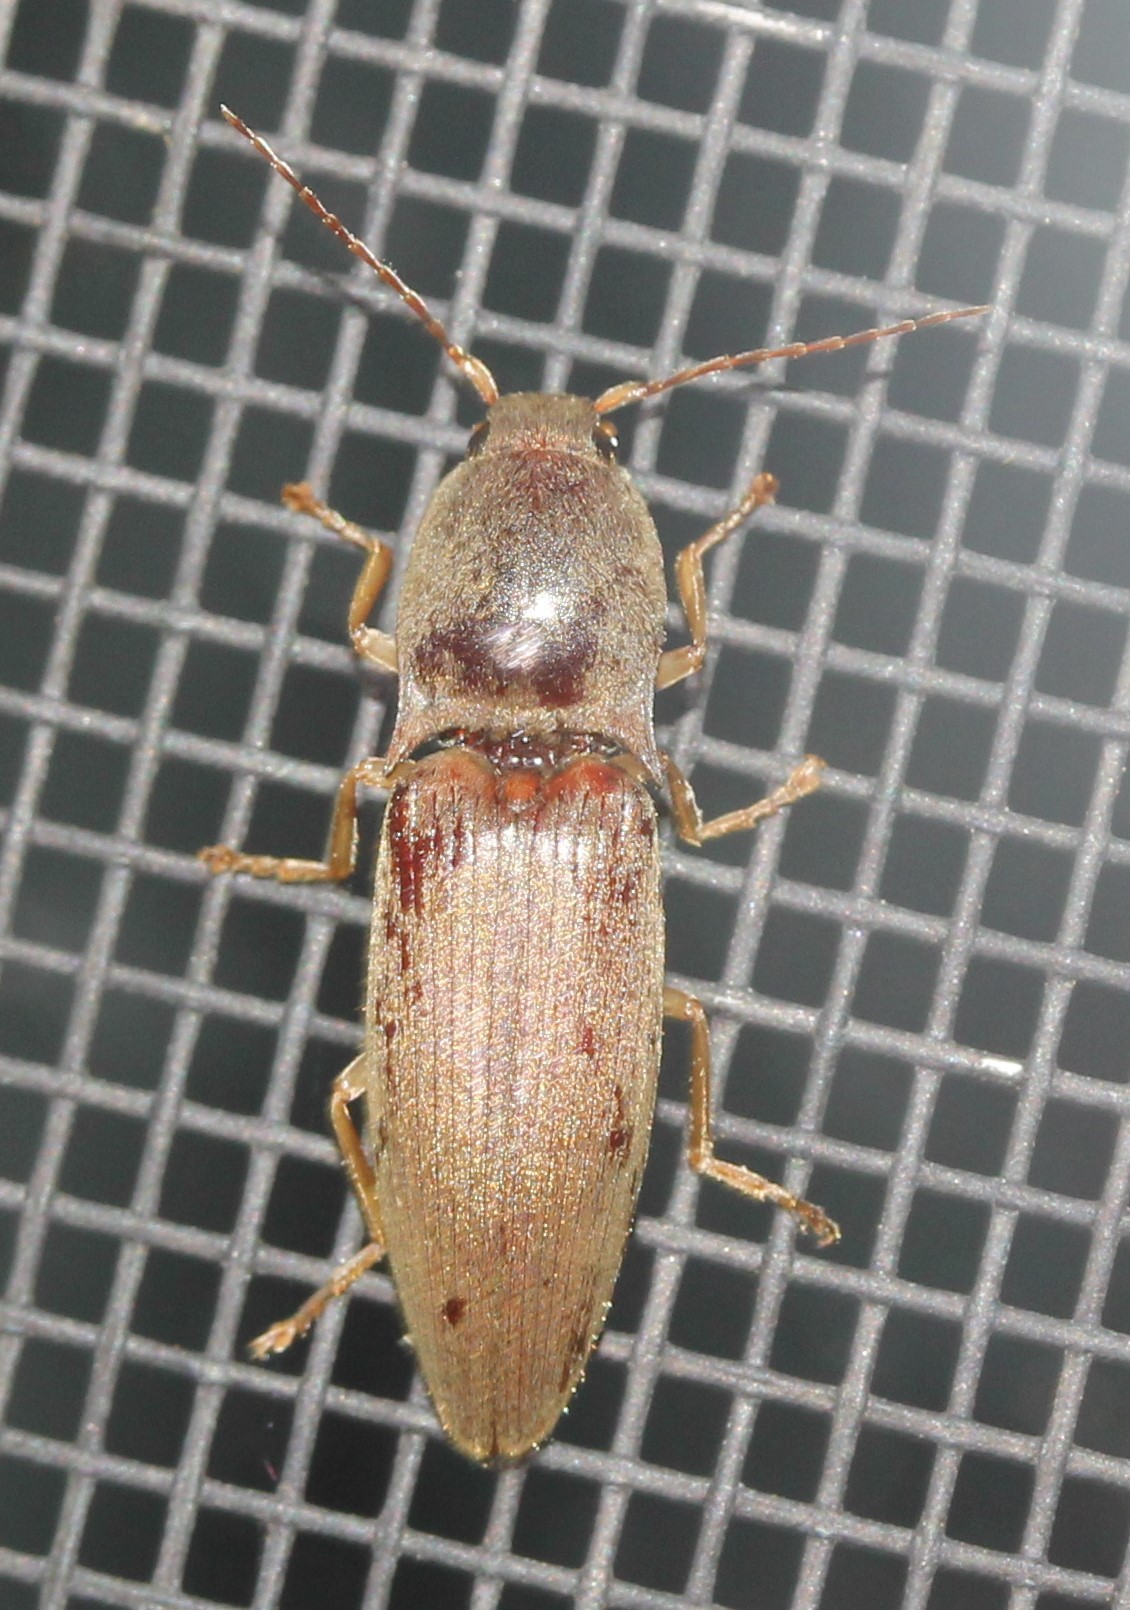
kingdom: Animalia
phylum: Arthropoda
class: Insecta
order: Coleoptera
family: Elateridae
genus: Monocrepidius
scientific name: Monocrepidius lividus
